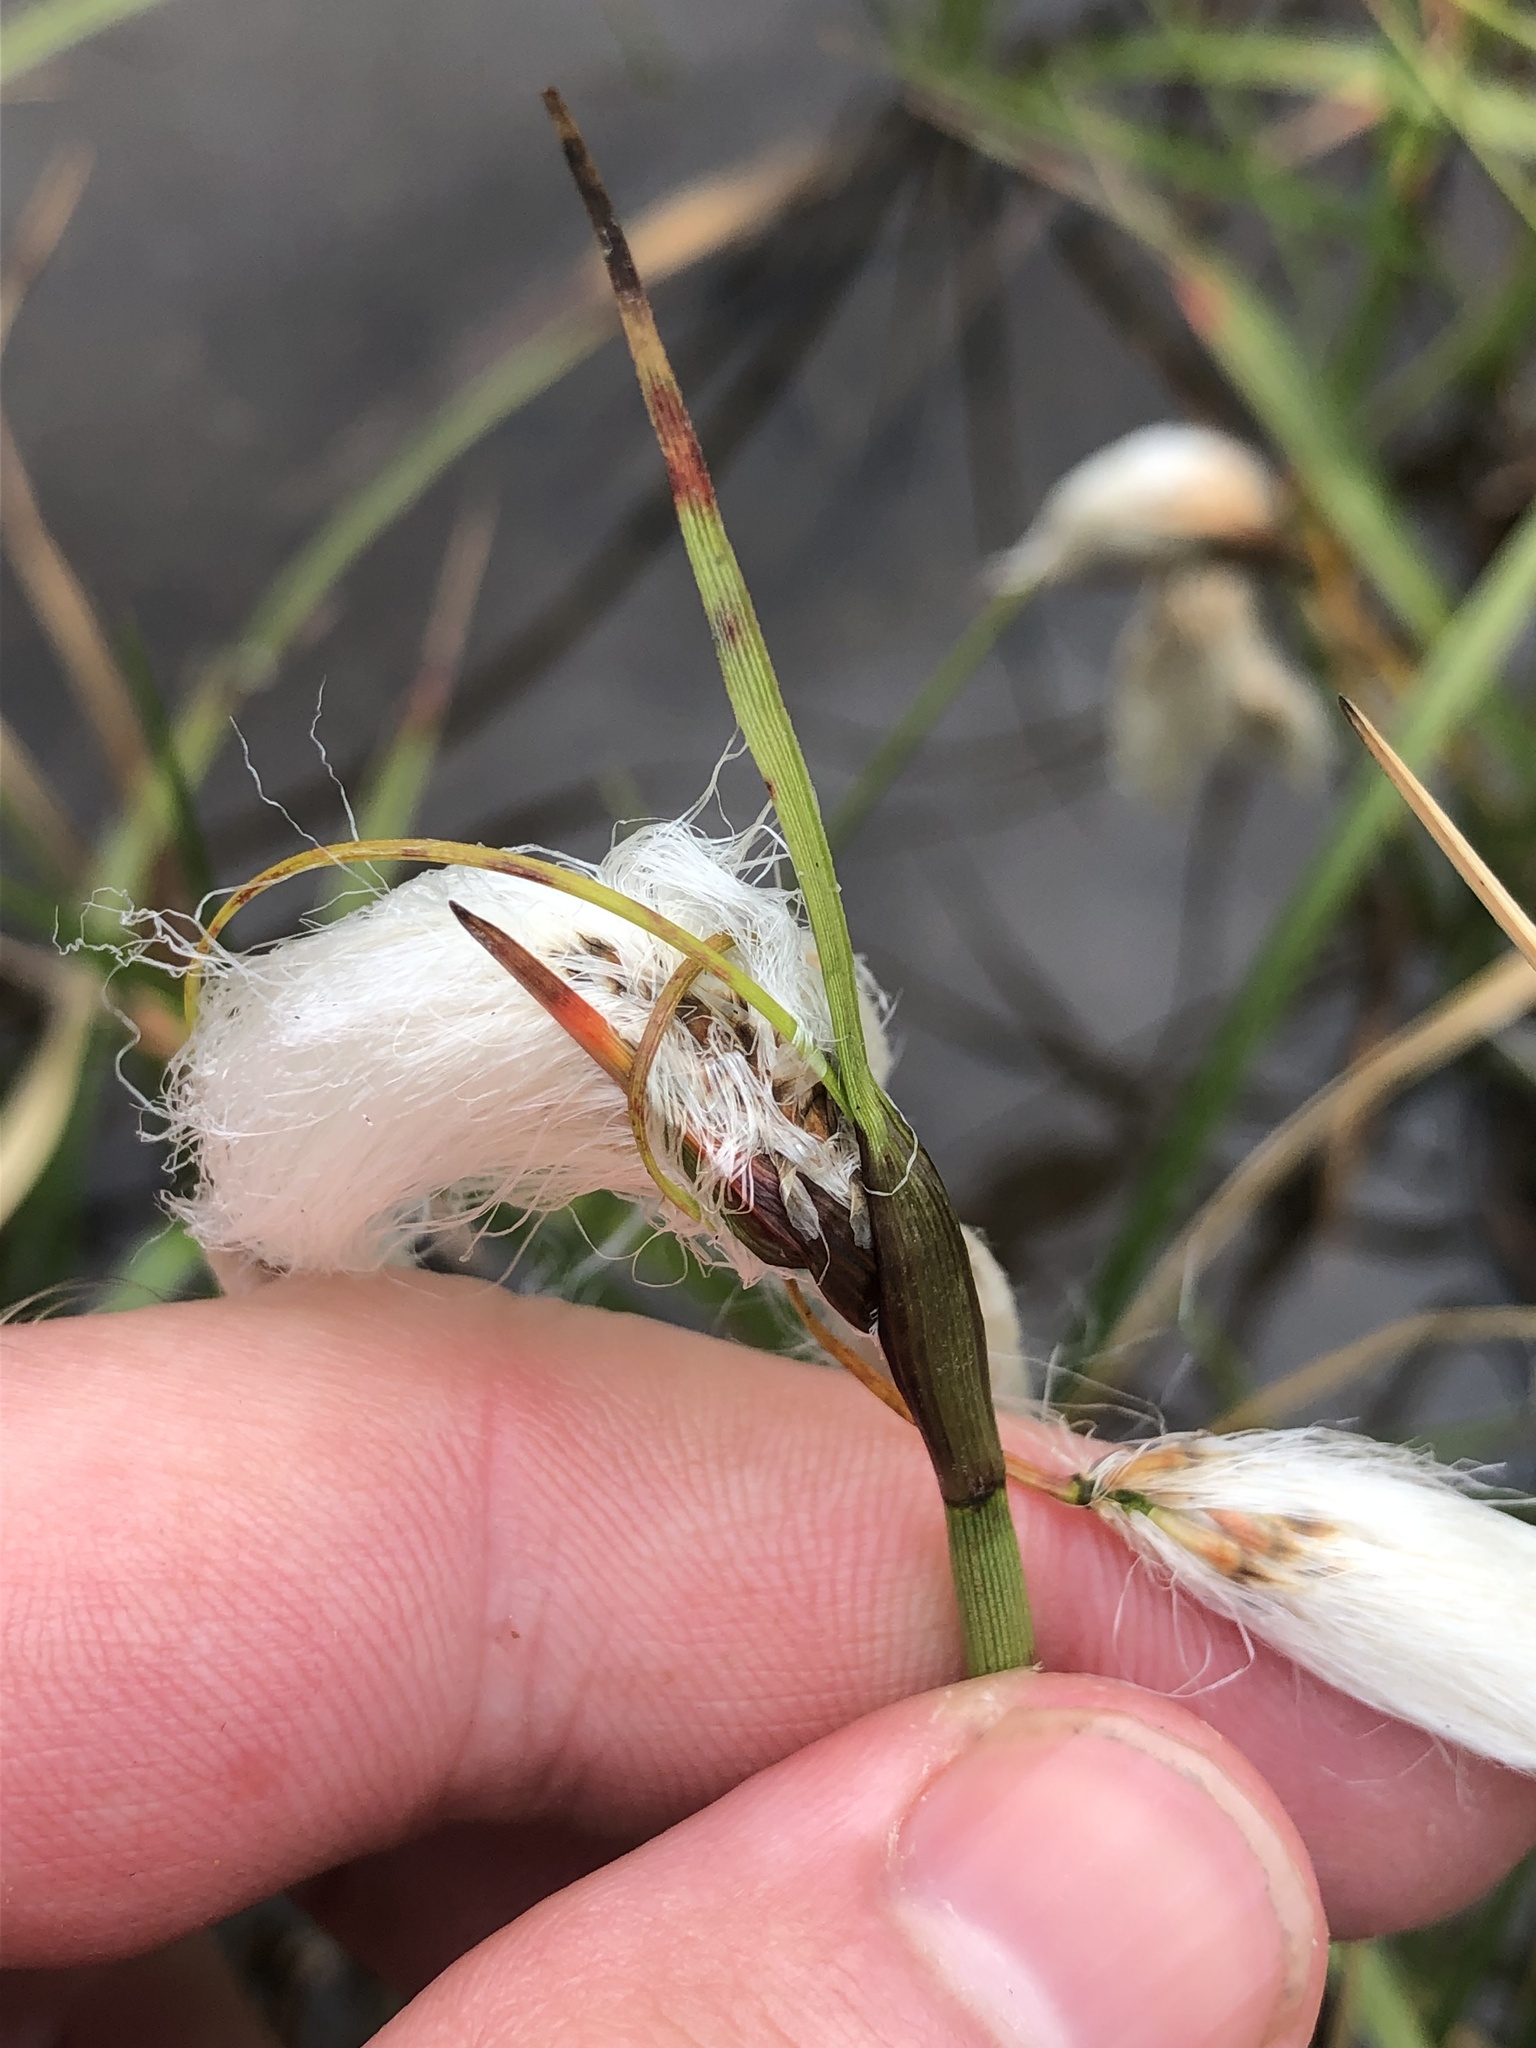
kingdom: Plantae
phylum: Tracheophyta
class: Liliopsida
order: Poales
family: Cyperaceae
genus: Eriophorum
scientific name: Eriophorum angustifolium
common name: Common cottongrass
